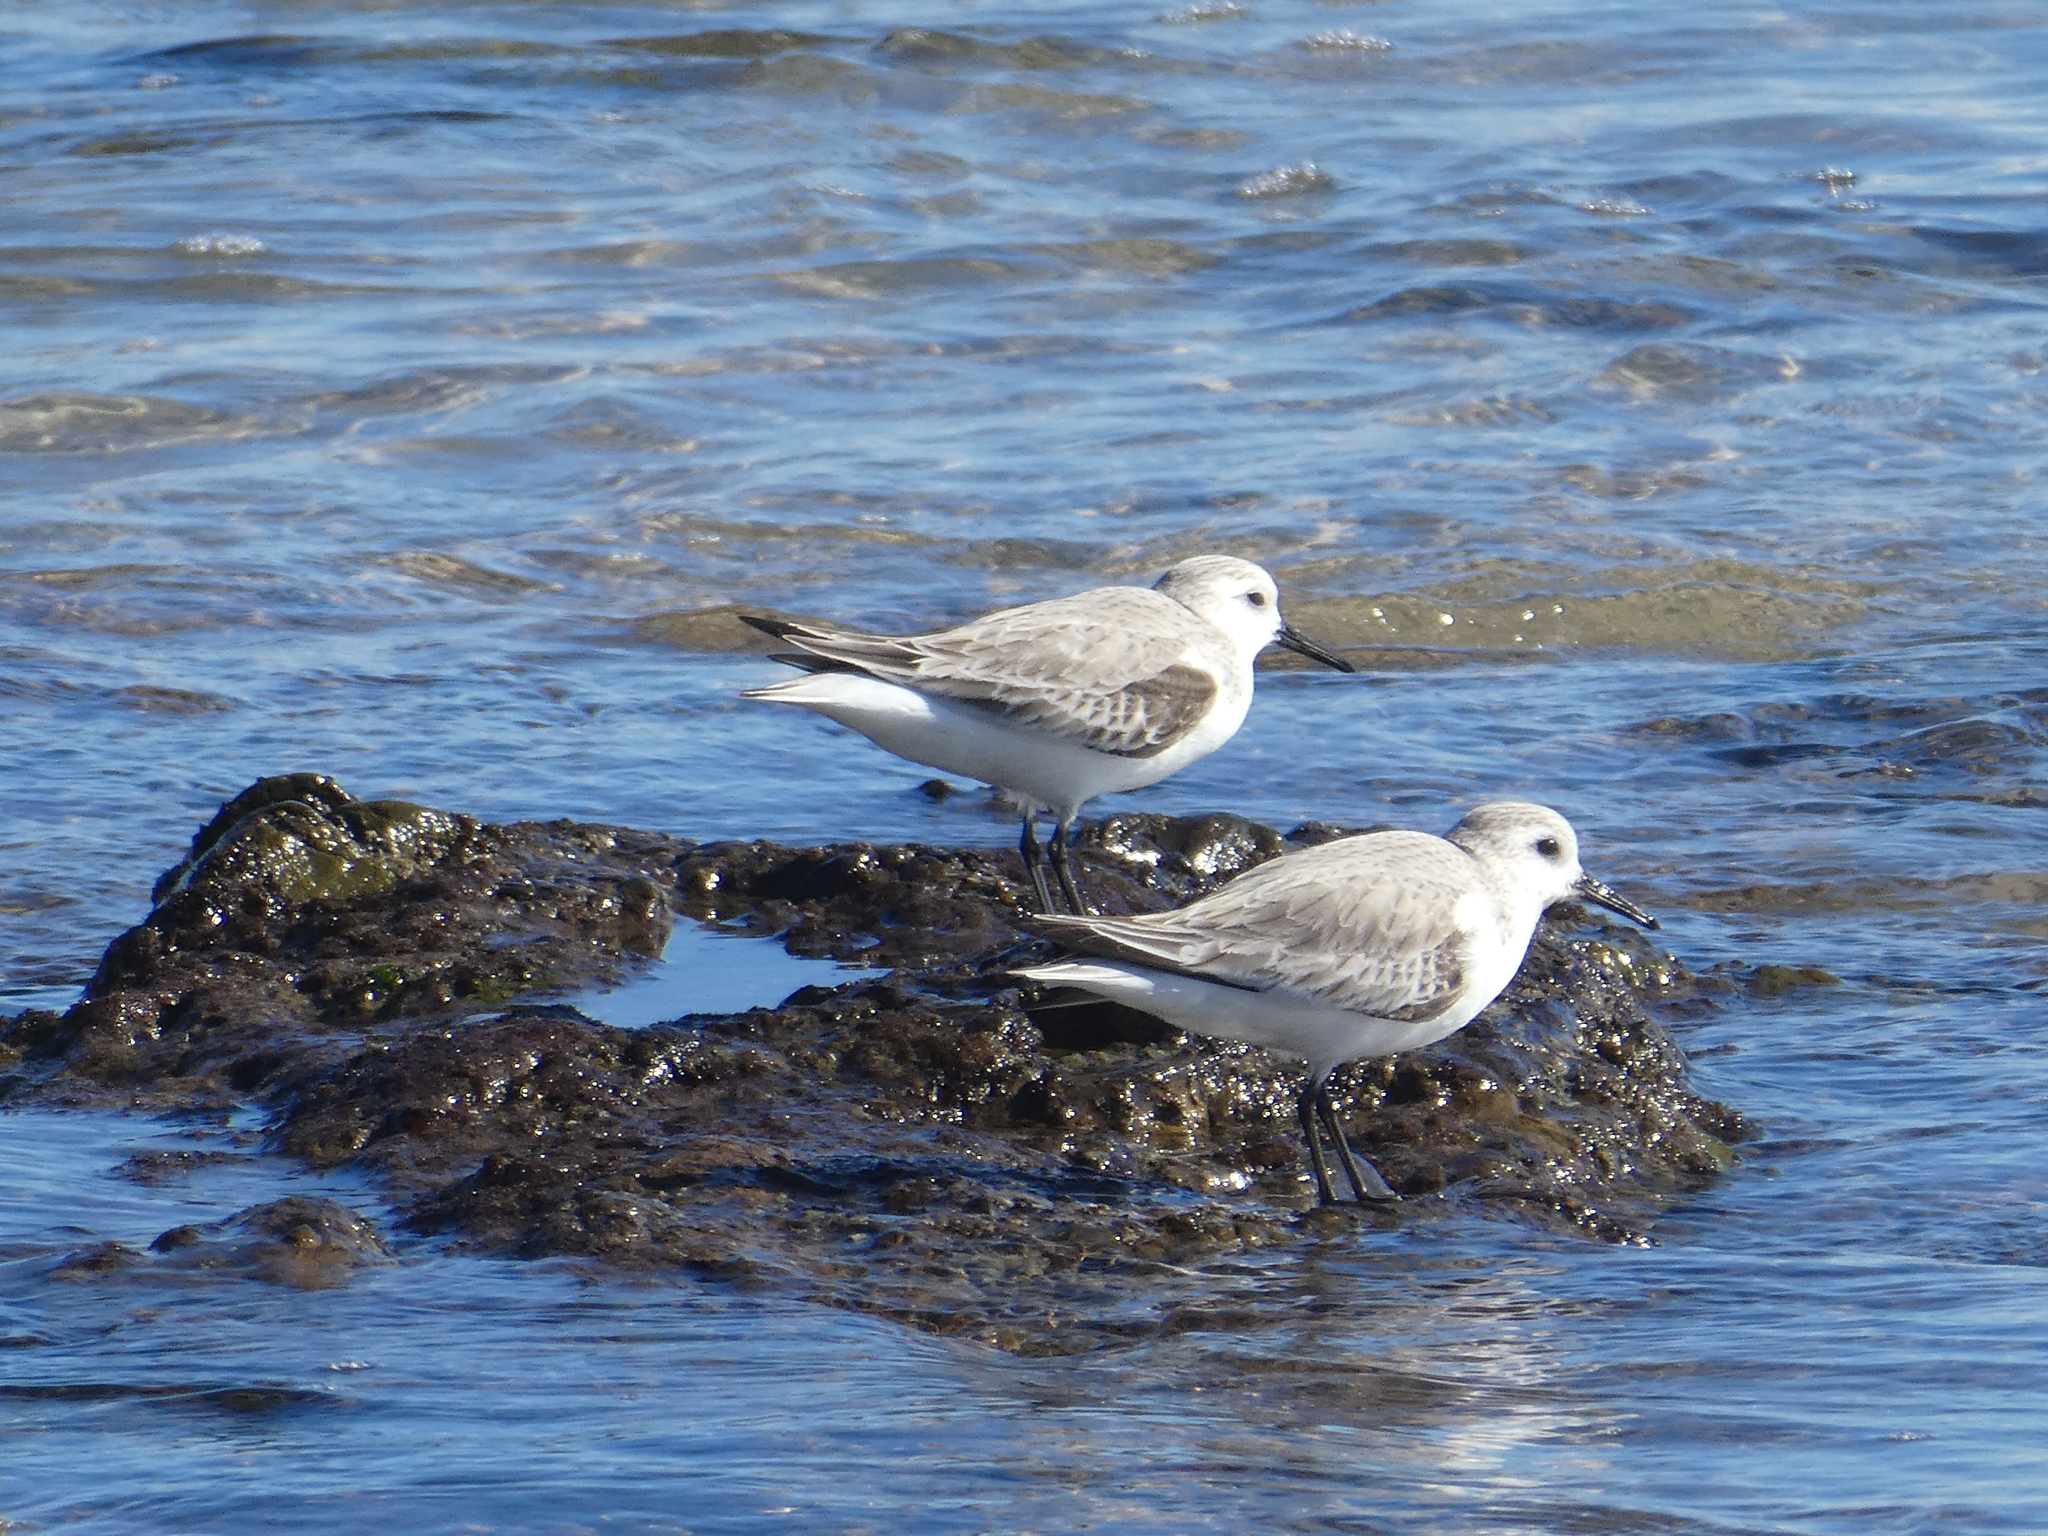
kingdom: Animalia
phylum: Chordata
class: Aves
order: Charadriiformes
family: Scolopacidae
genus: Calidris
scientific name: Calidris alba
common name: Sanderling
